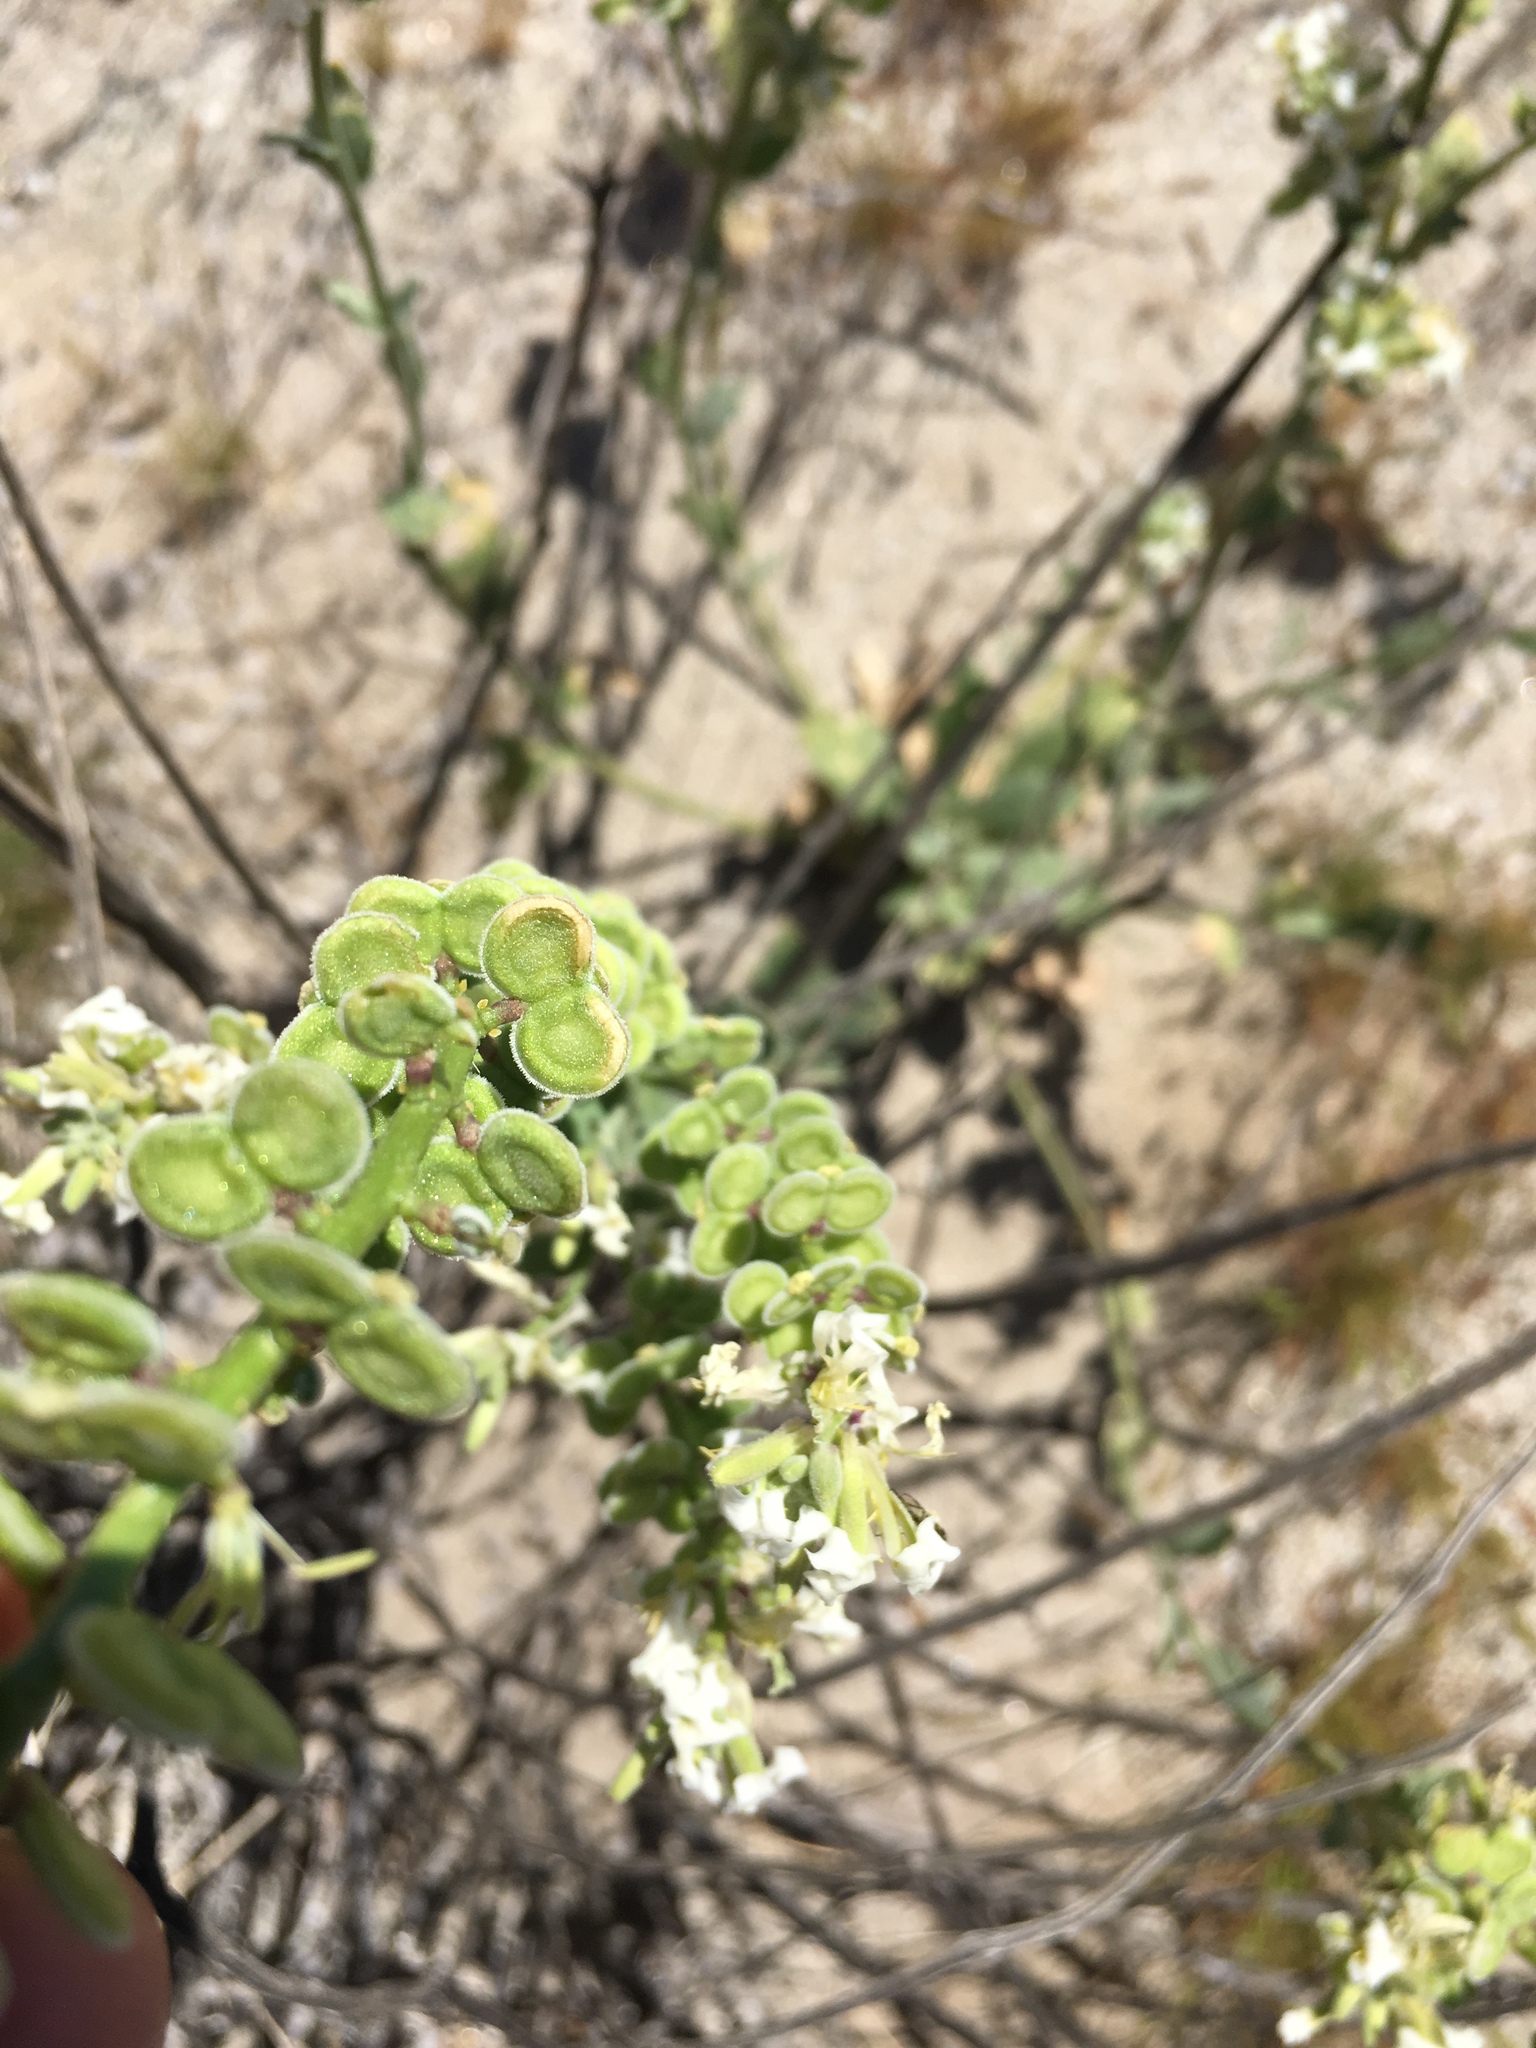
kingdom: Plantae
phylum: Tracheophyta
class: Magnoliopsida
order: Brassicales
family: Brassicaceae
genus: Dithyrea
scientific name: Dithyrea californica
